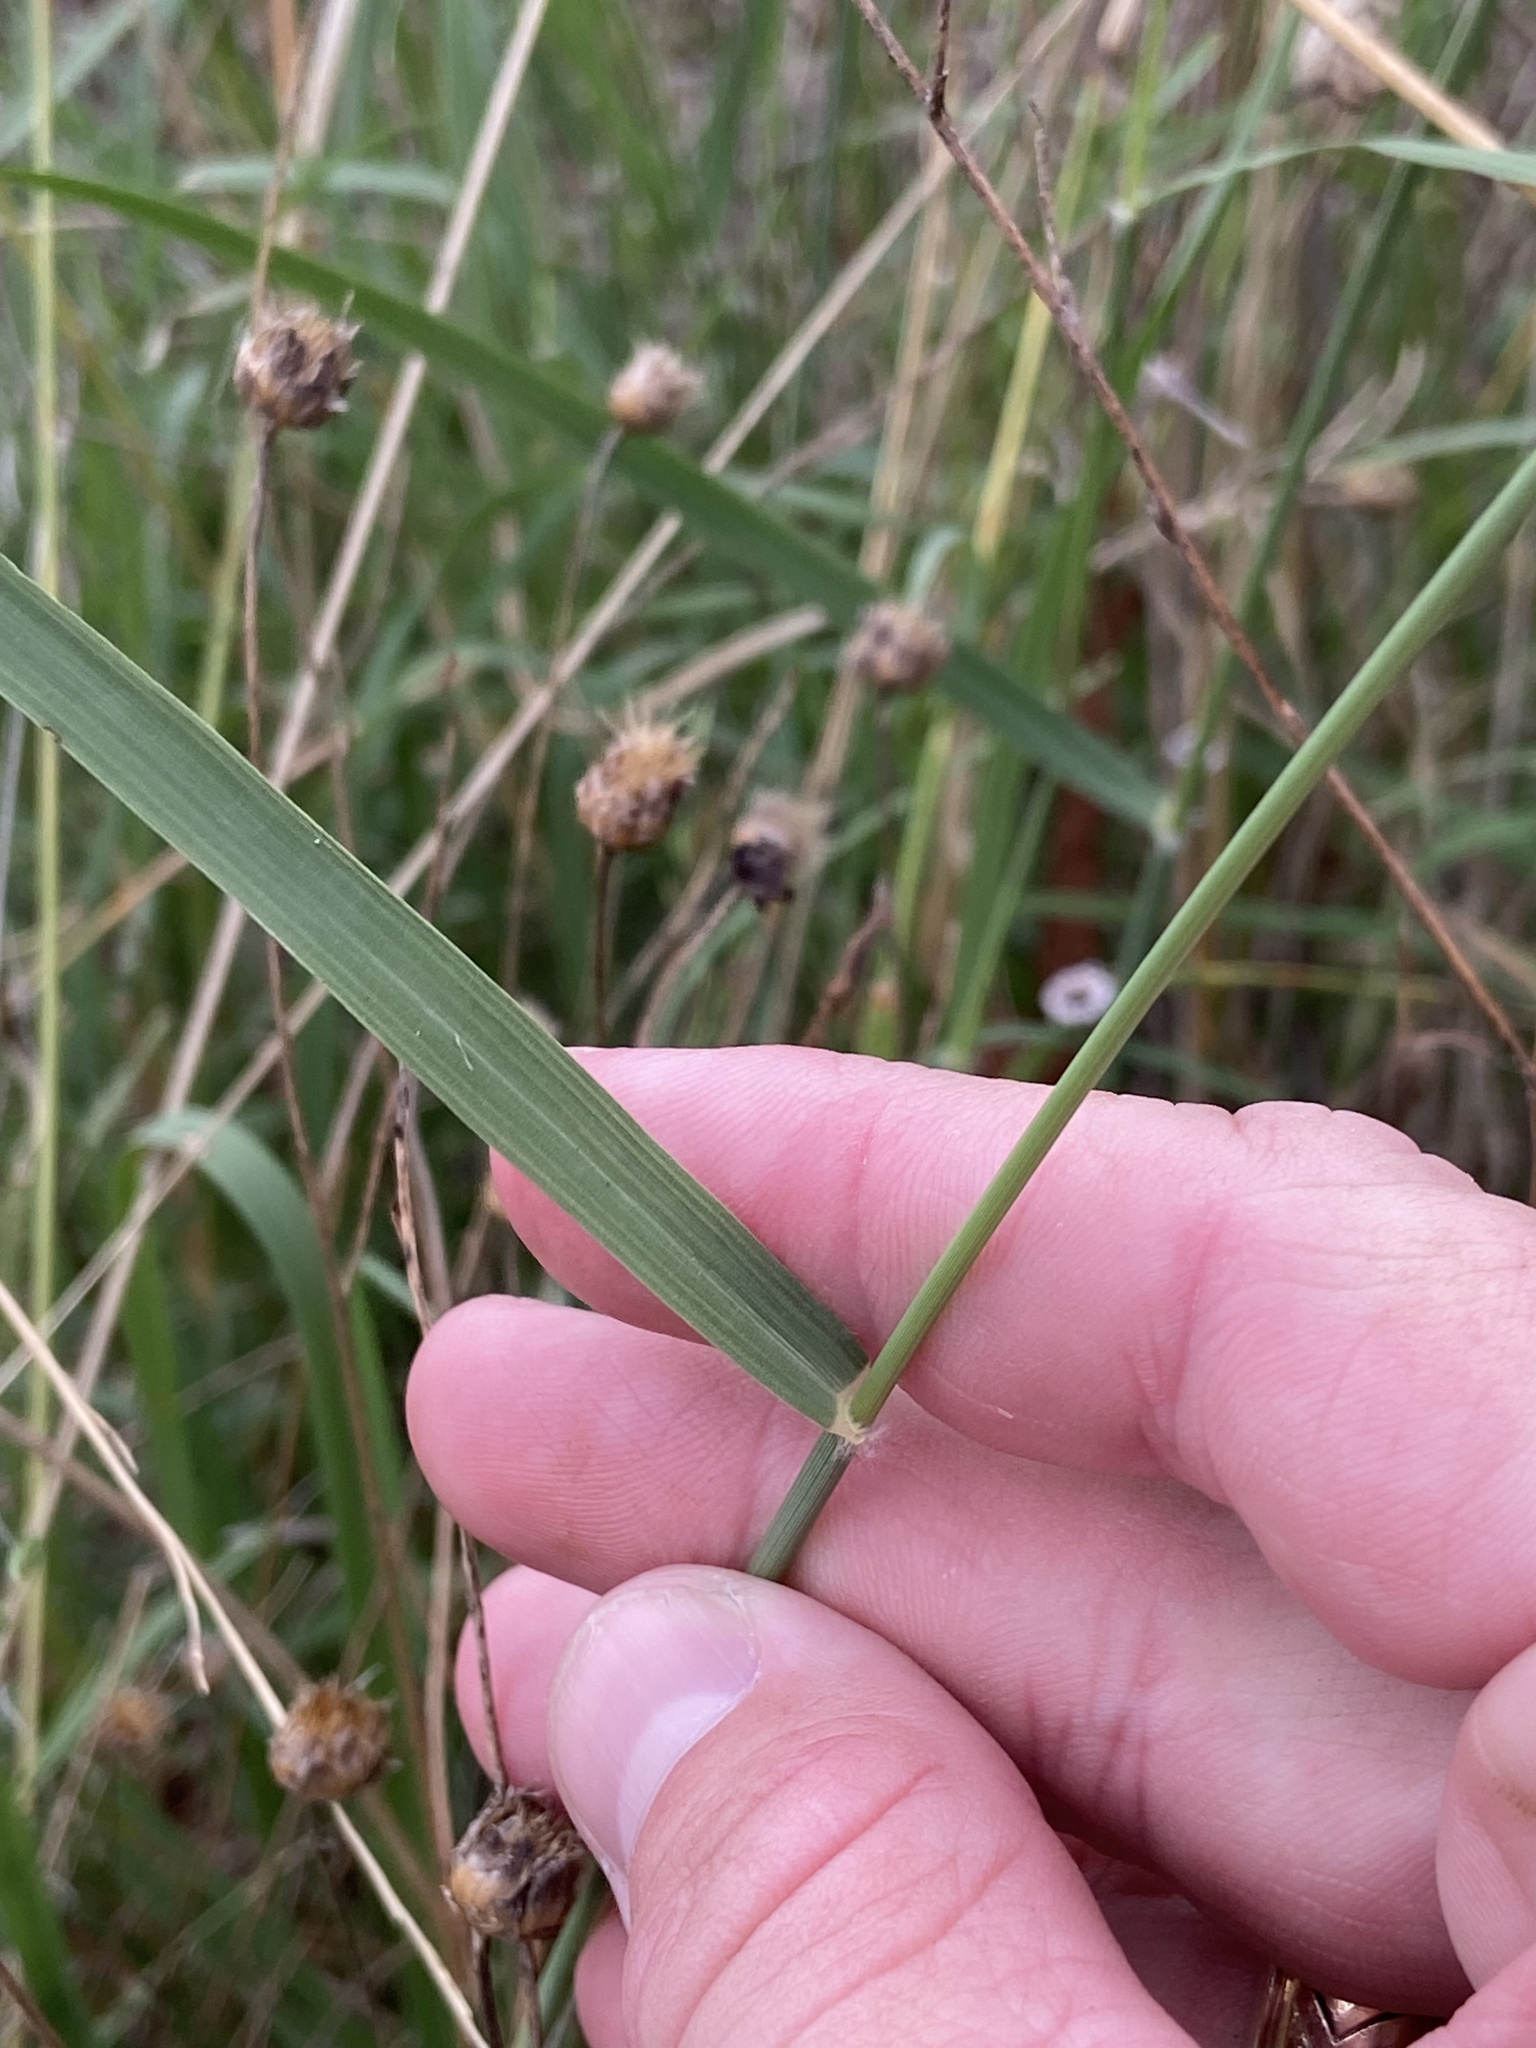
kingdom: Plantae
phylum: Tracheophyta
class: Liliopsida
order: Poales
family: Poaceae
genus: Eragrostis
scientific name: Eragrostis superba
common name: Wilman lovegrass
